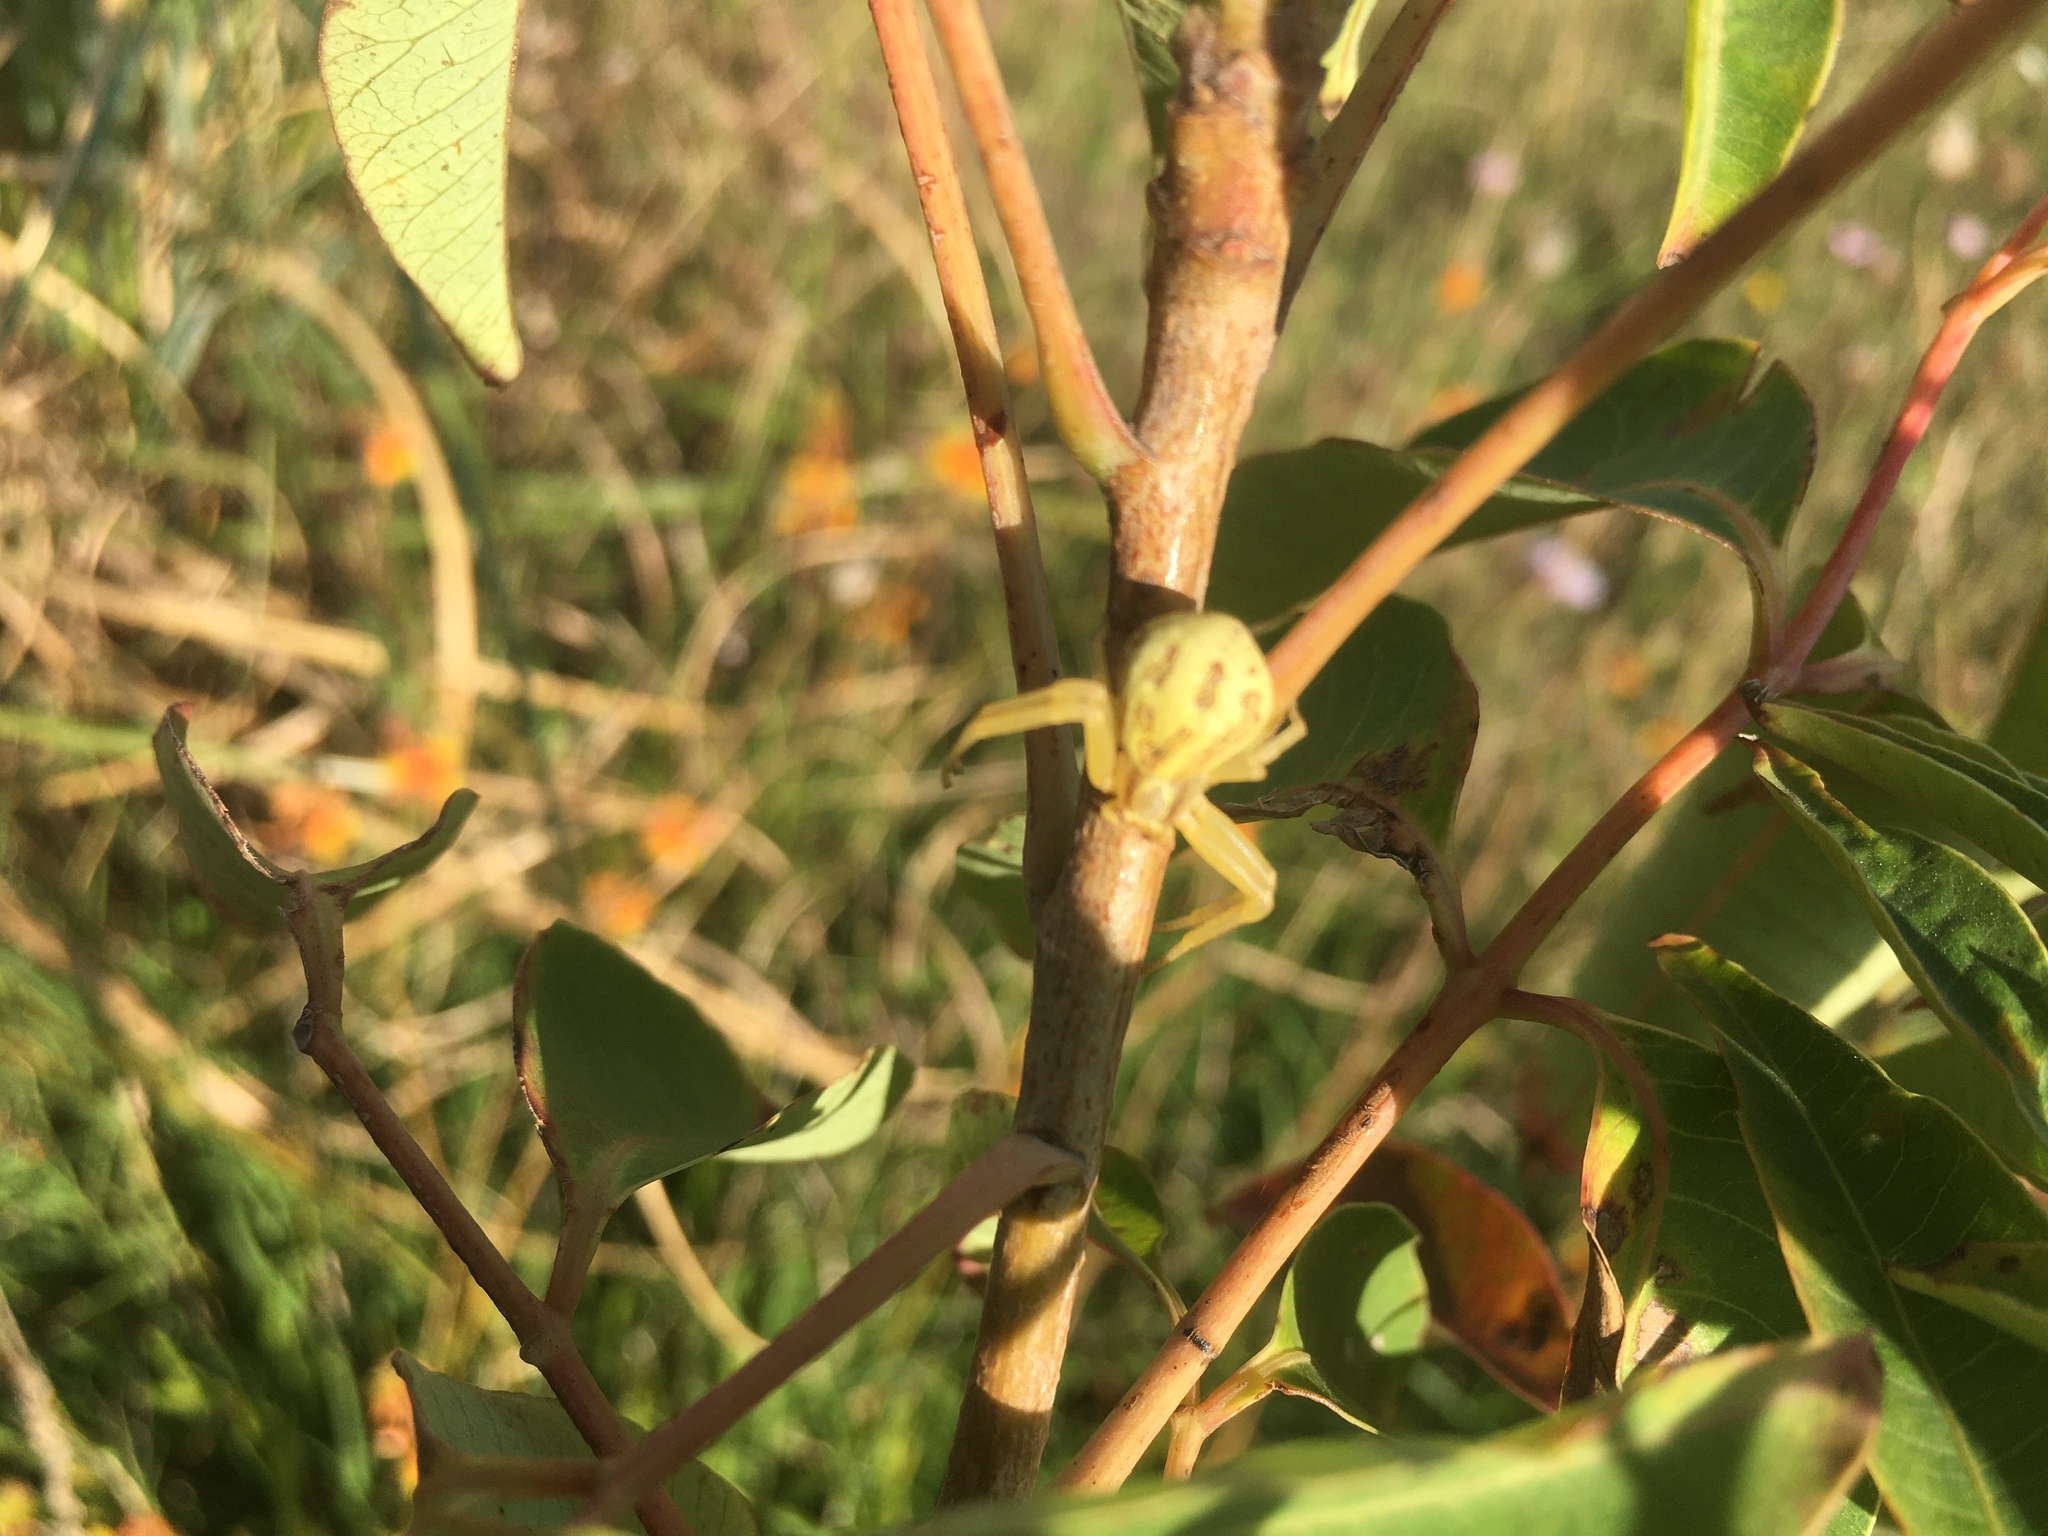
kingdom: Animalia
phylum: Arthropoda
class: Arachnida
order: Araneae
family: Thomisidae
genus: Misumenops
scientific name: Misumenops
